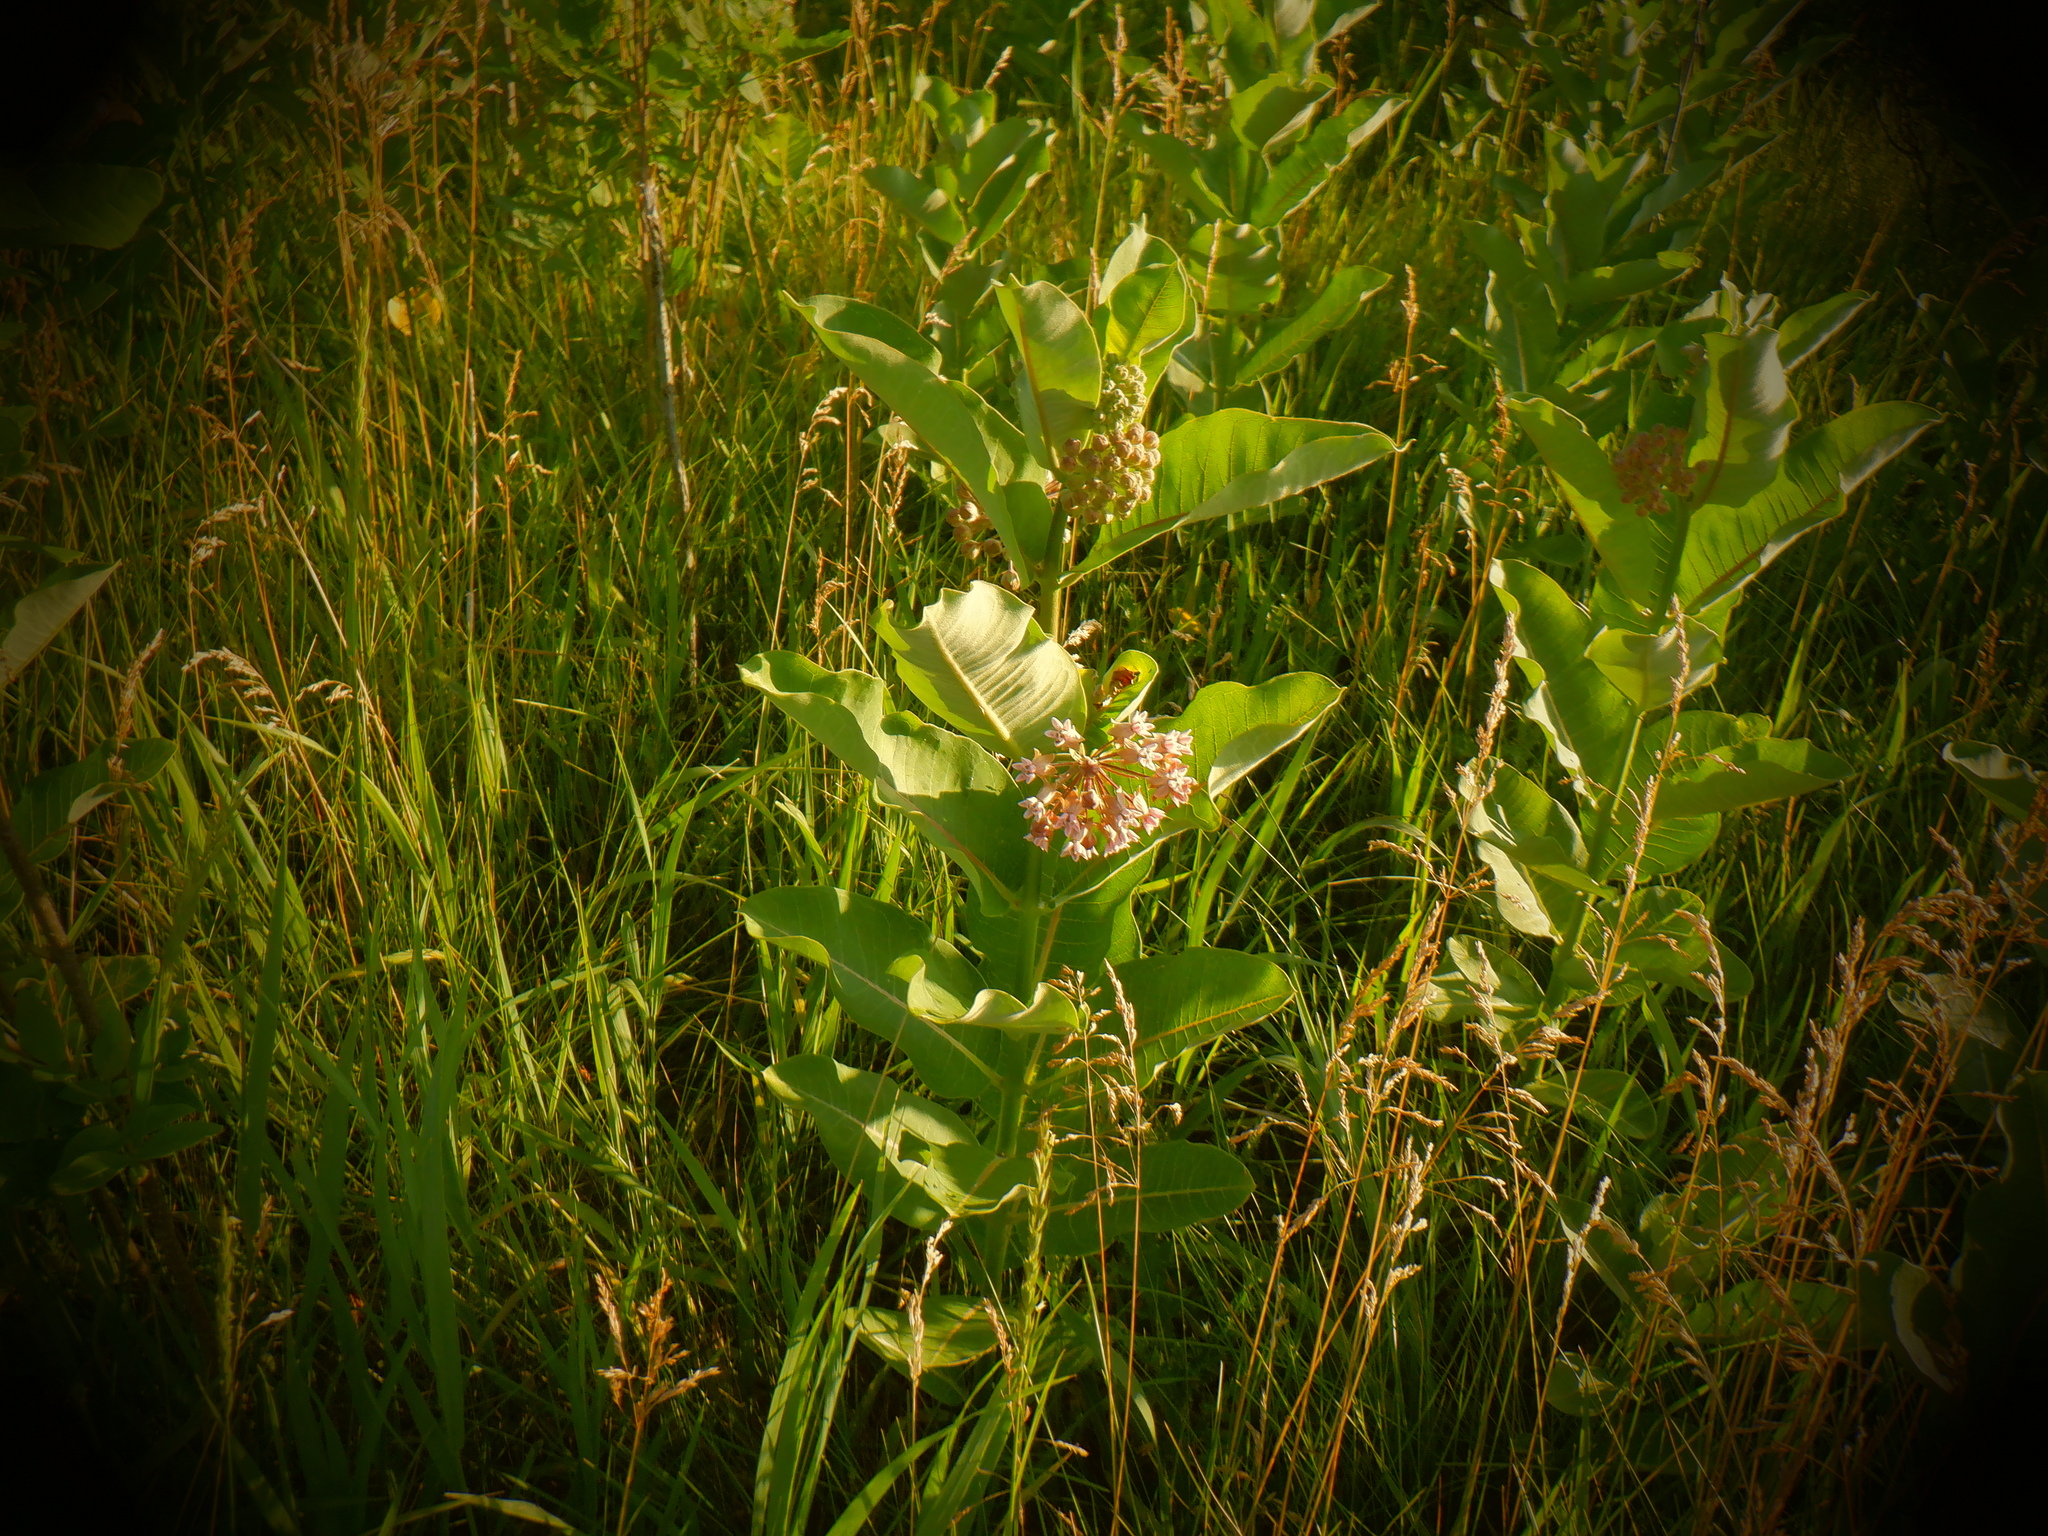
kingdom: Plantae
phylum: Tracheophyta
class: Magnoliopsida
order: Gentianales
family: Apocynaceae
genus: Asclepias
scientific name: Asclepias syriaca
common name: Common milkweed
